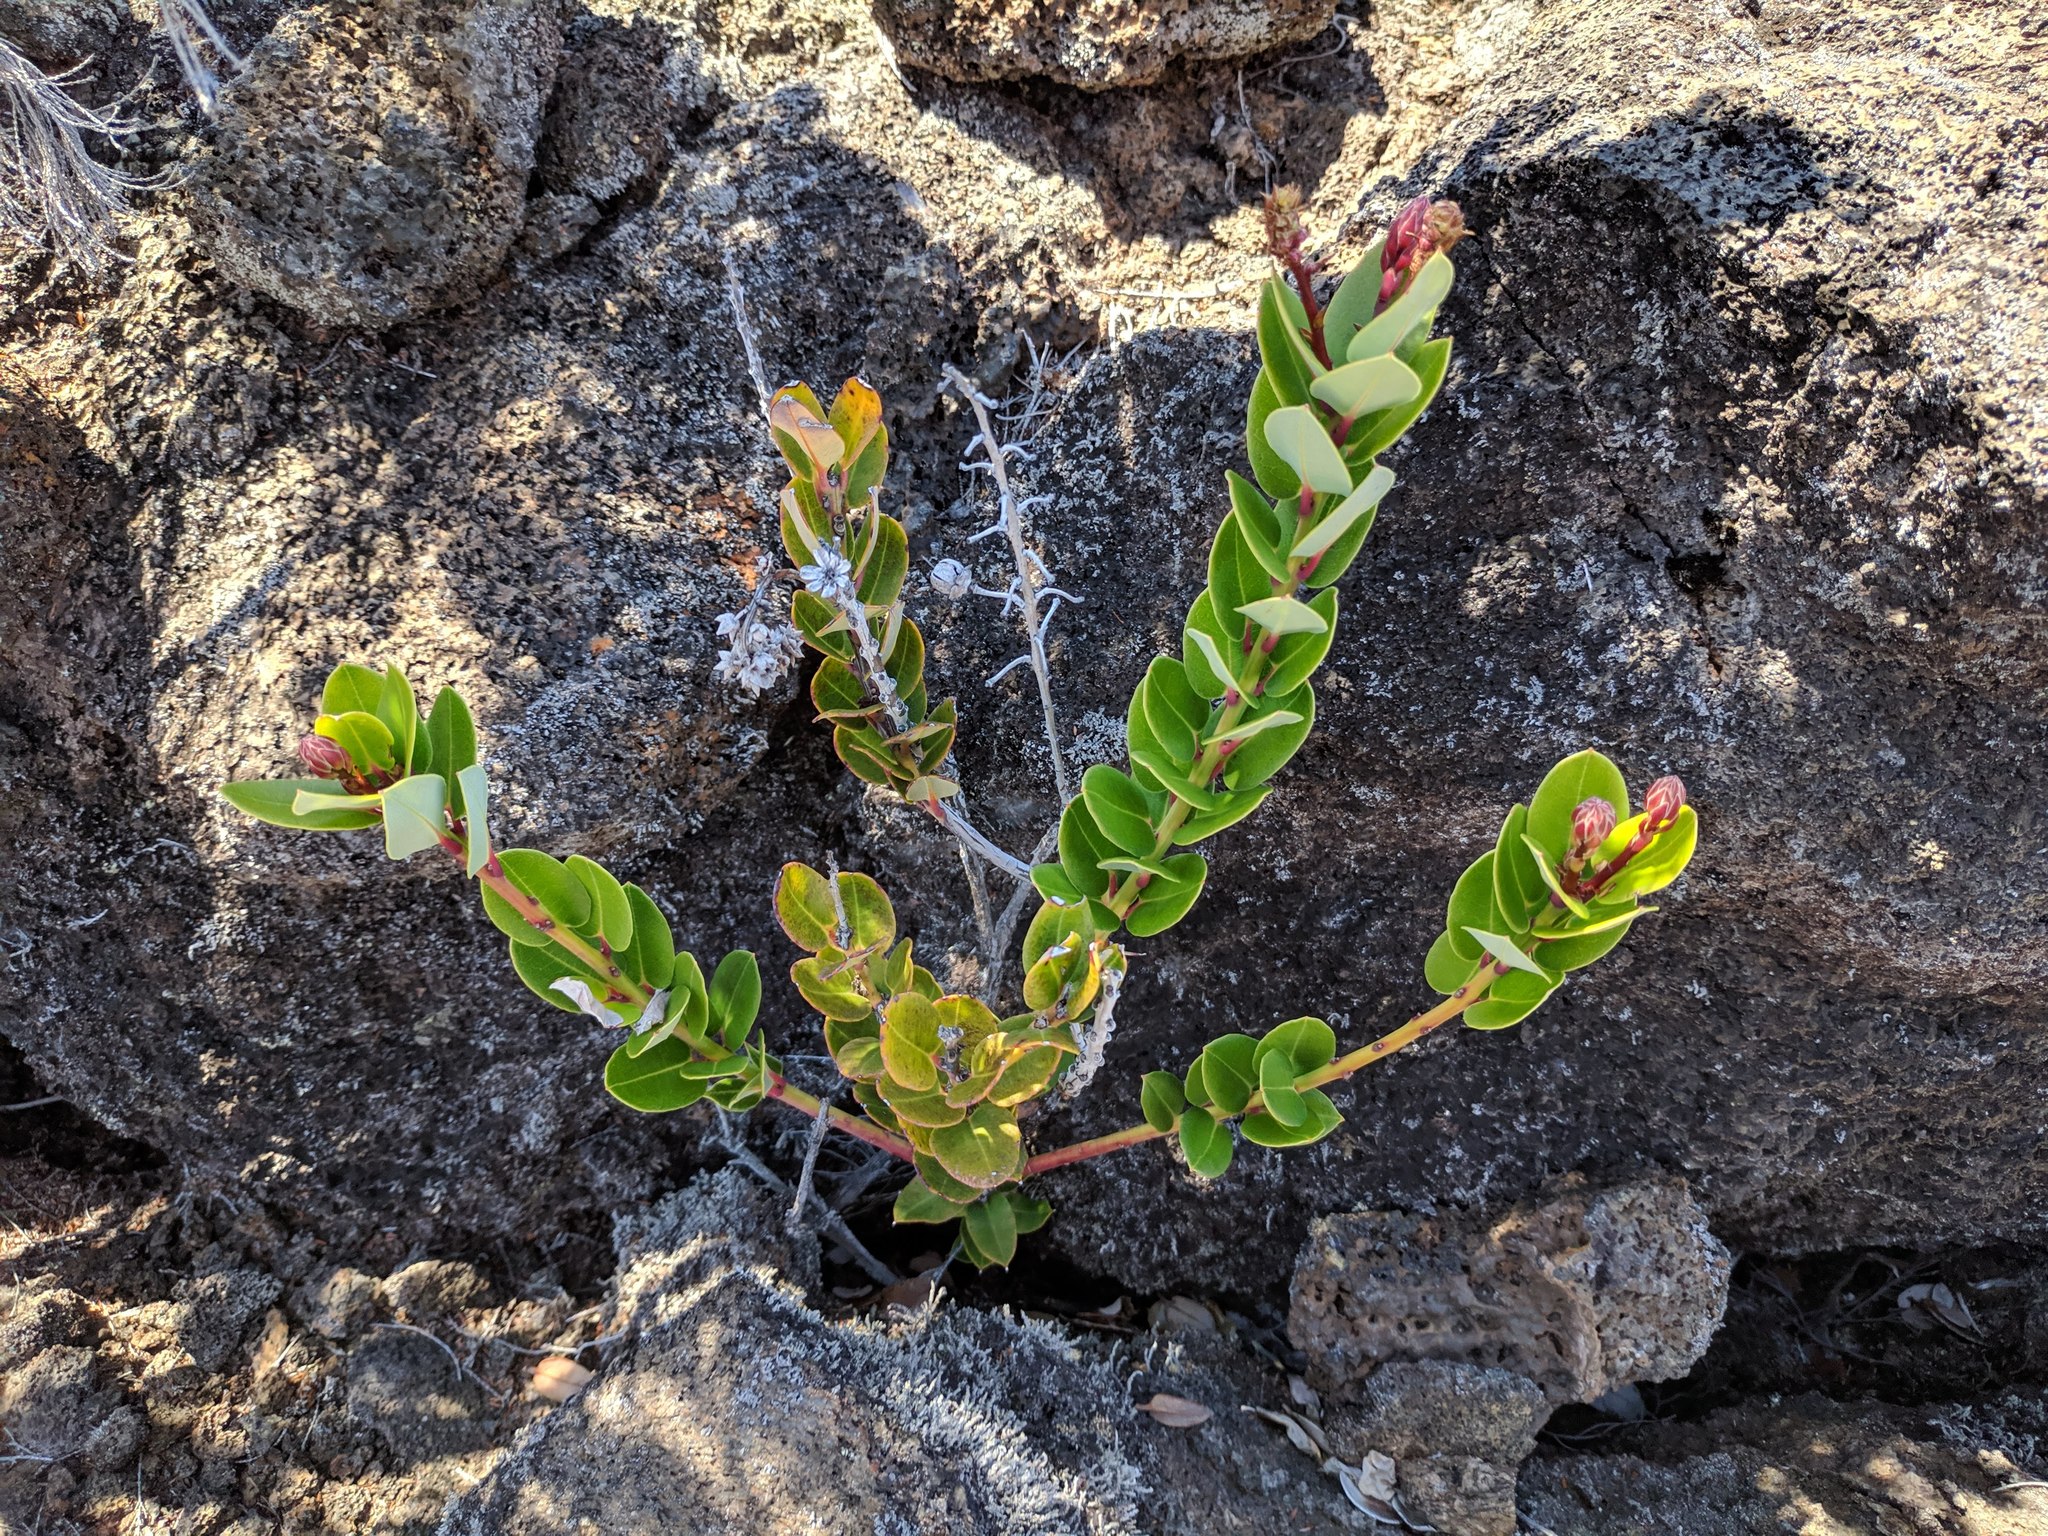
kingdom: Plantae
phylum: Tracheophyta
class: Magnoliopsida
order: Ericales
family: Ericaceae
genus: Agarista
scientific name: Agarista buxifolia
